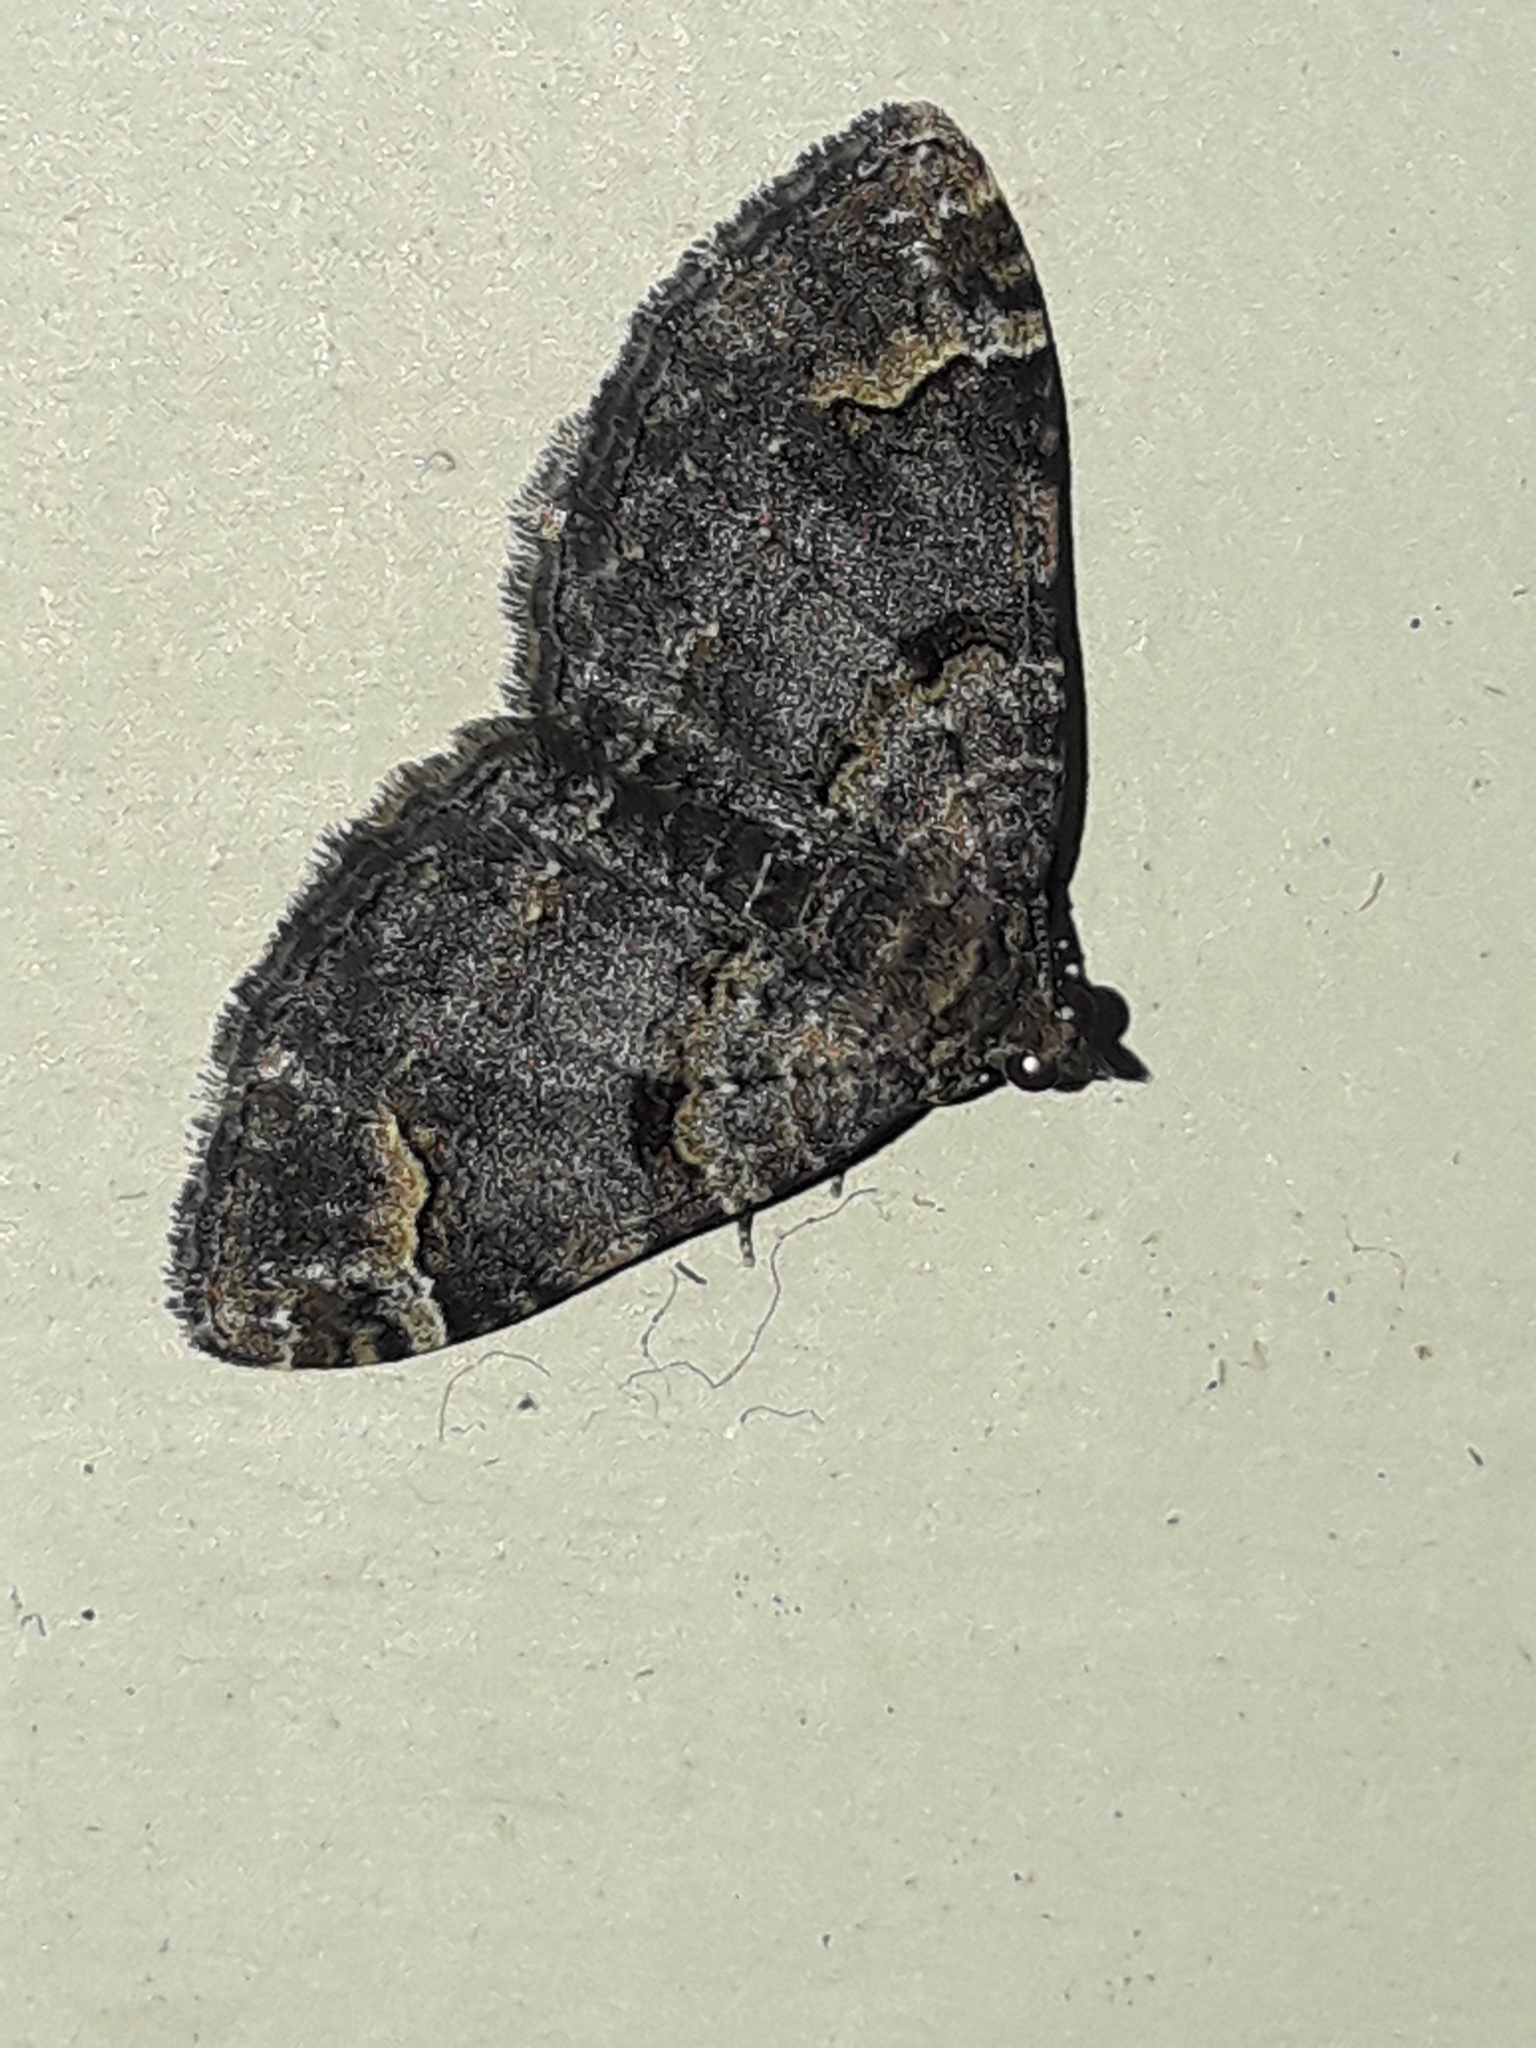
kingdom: Animalia
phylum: Arthropoda
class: Insecta
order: Lepidoptera
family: Geometridae
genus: Epyaxa
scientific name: Epyaxa sodaliata
